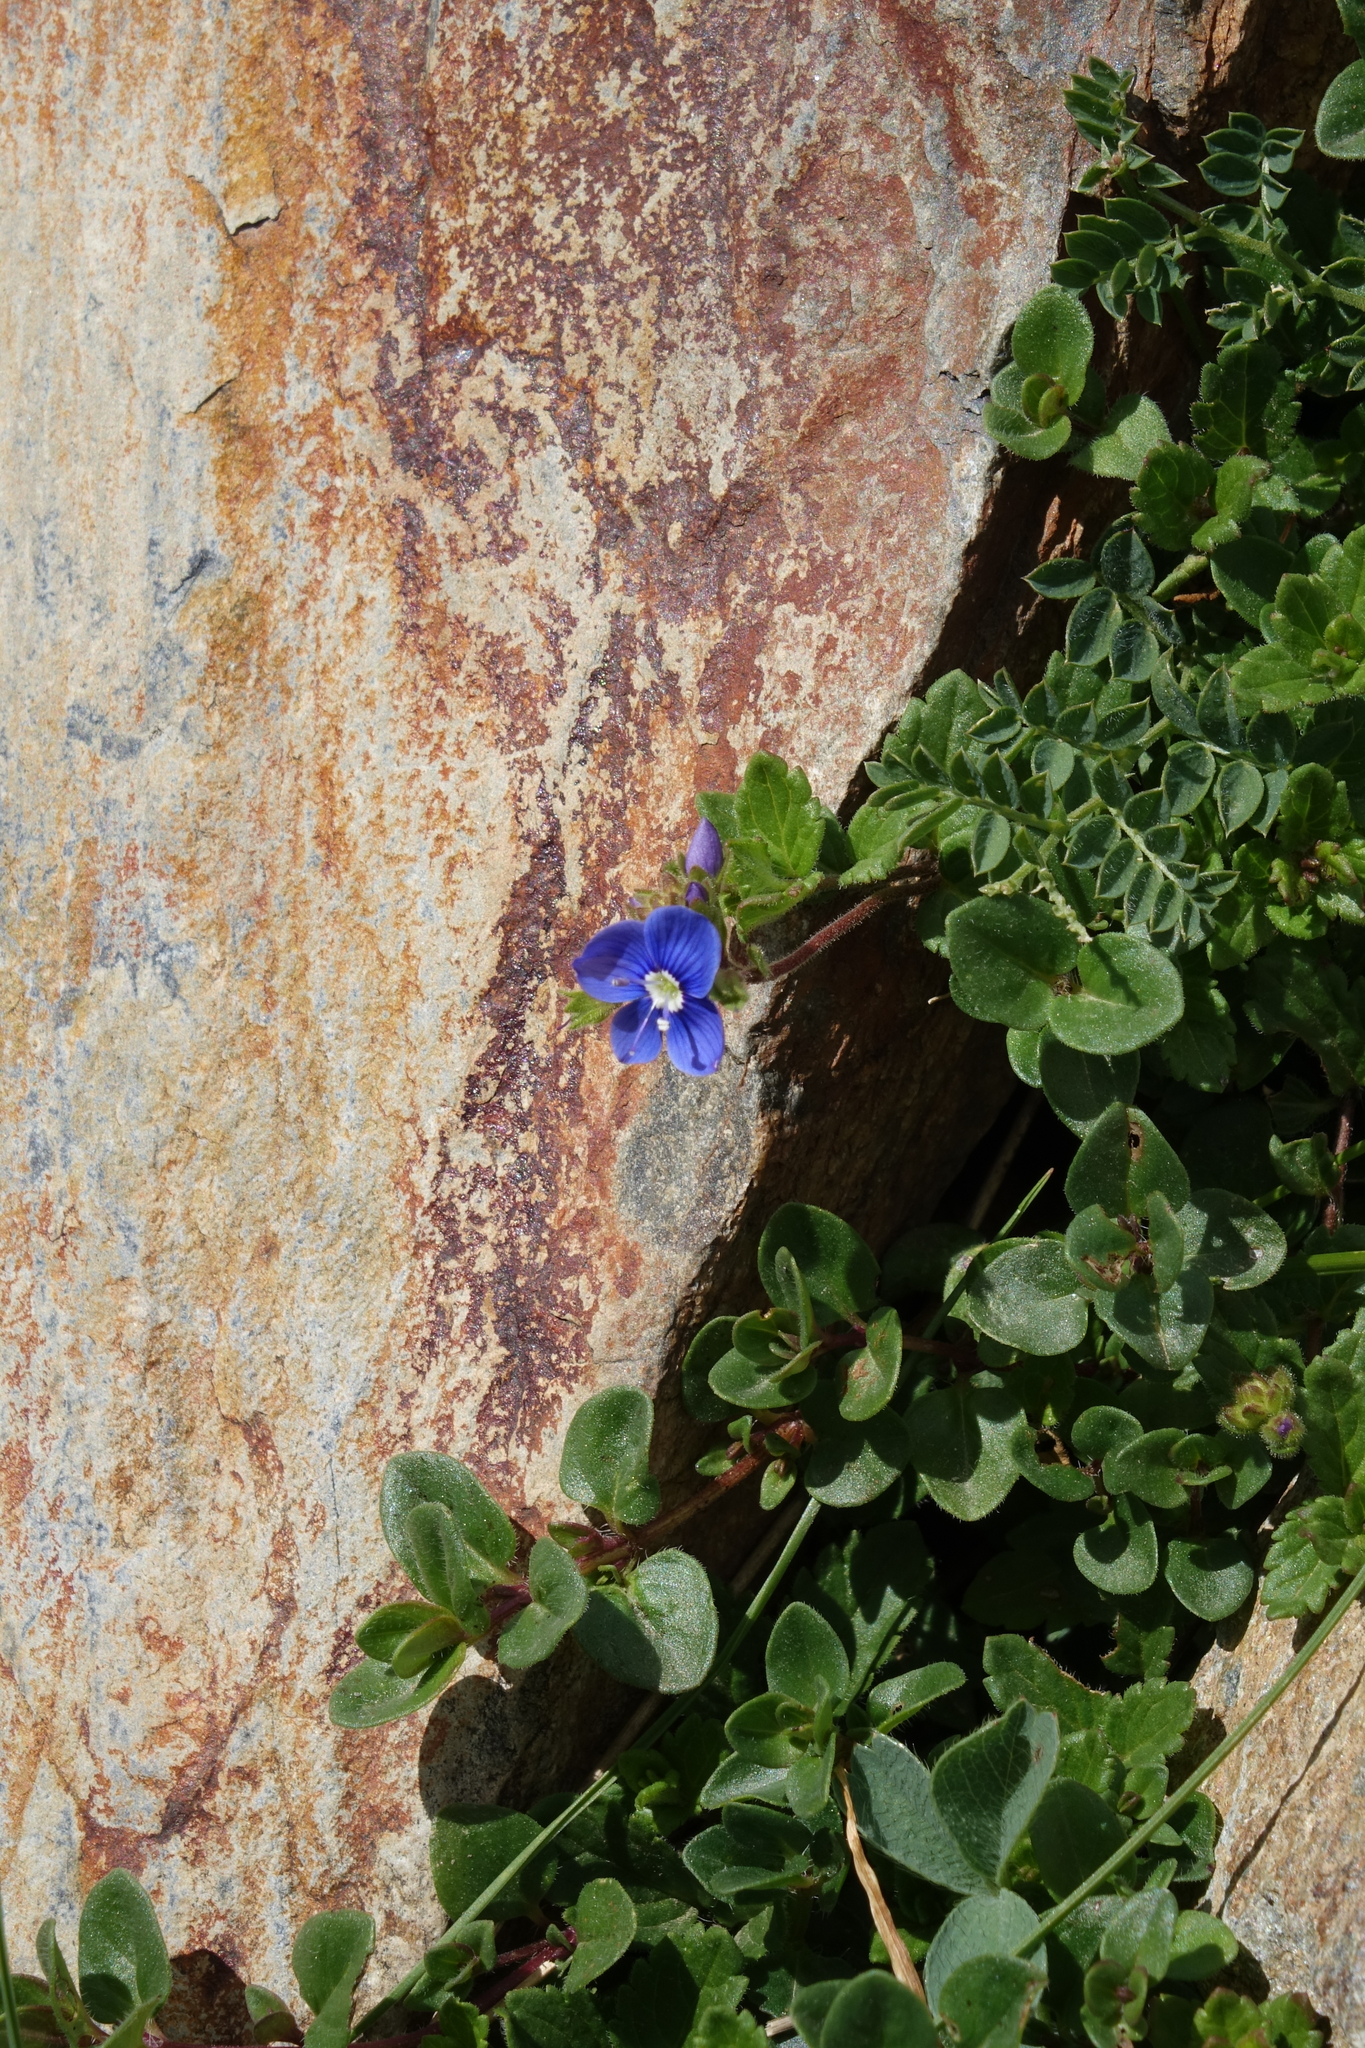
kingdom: Plantae
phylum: Tracheophyta
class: Magnoliopsida
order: Lamiales
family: Plantaginaceae
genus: Veronica
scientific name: Veronica petraea
